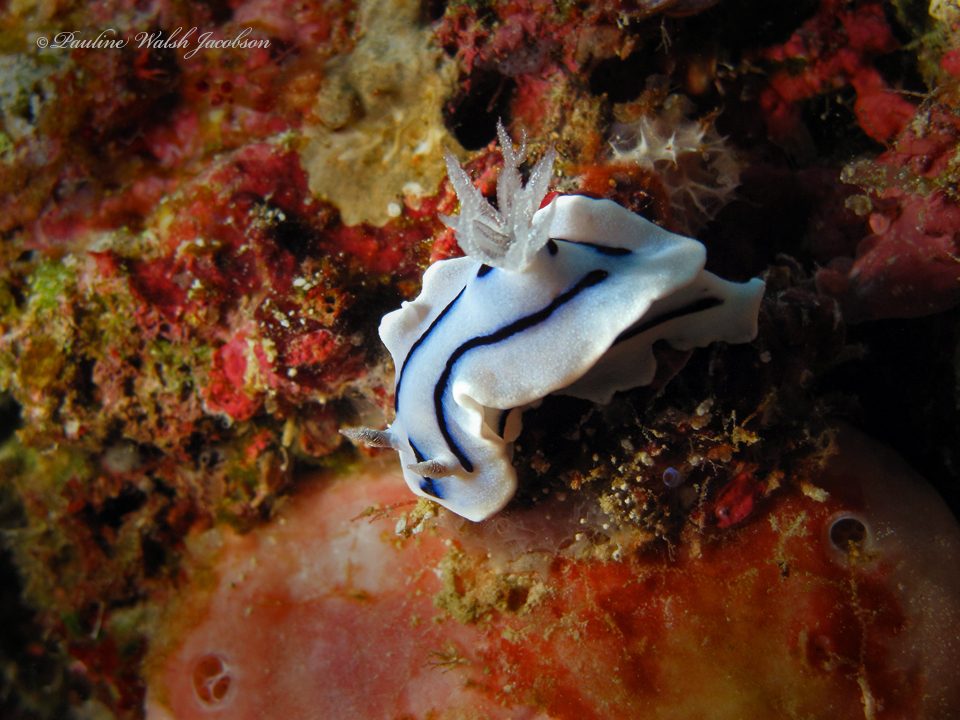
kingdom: Animalia
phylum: Mollusca
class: Gastropoda
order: Nudibranchia
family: Chromodorididae
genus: Chromodoris
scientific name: Chromodoris willani
